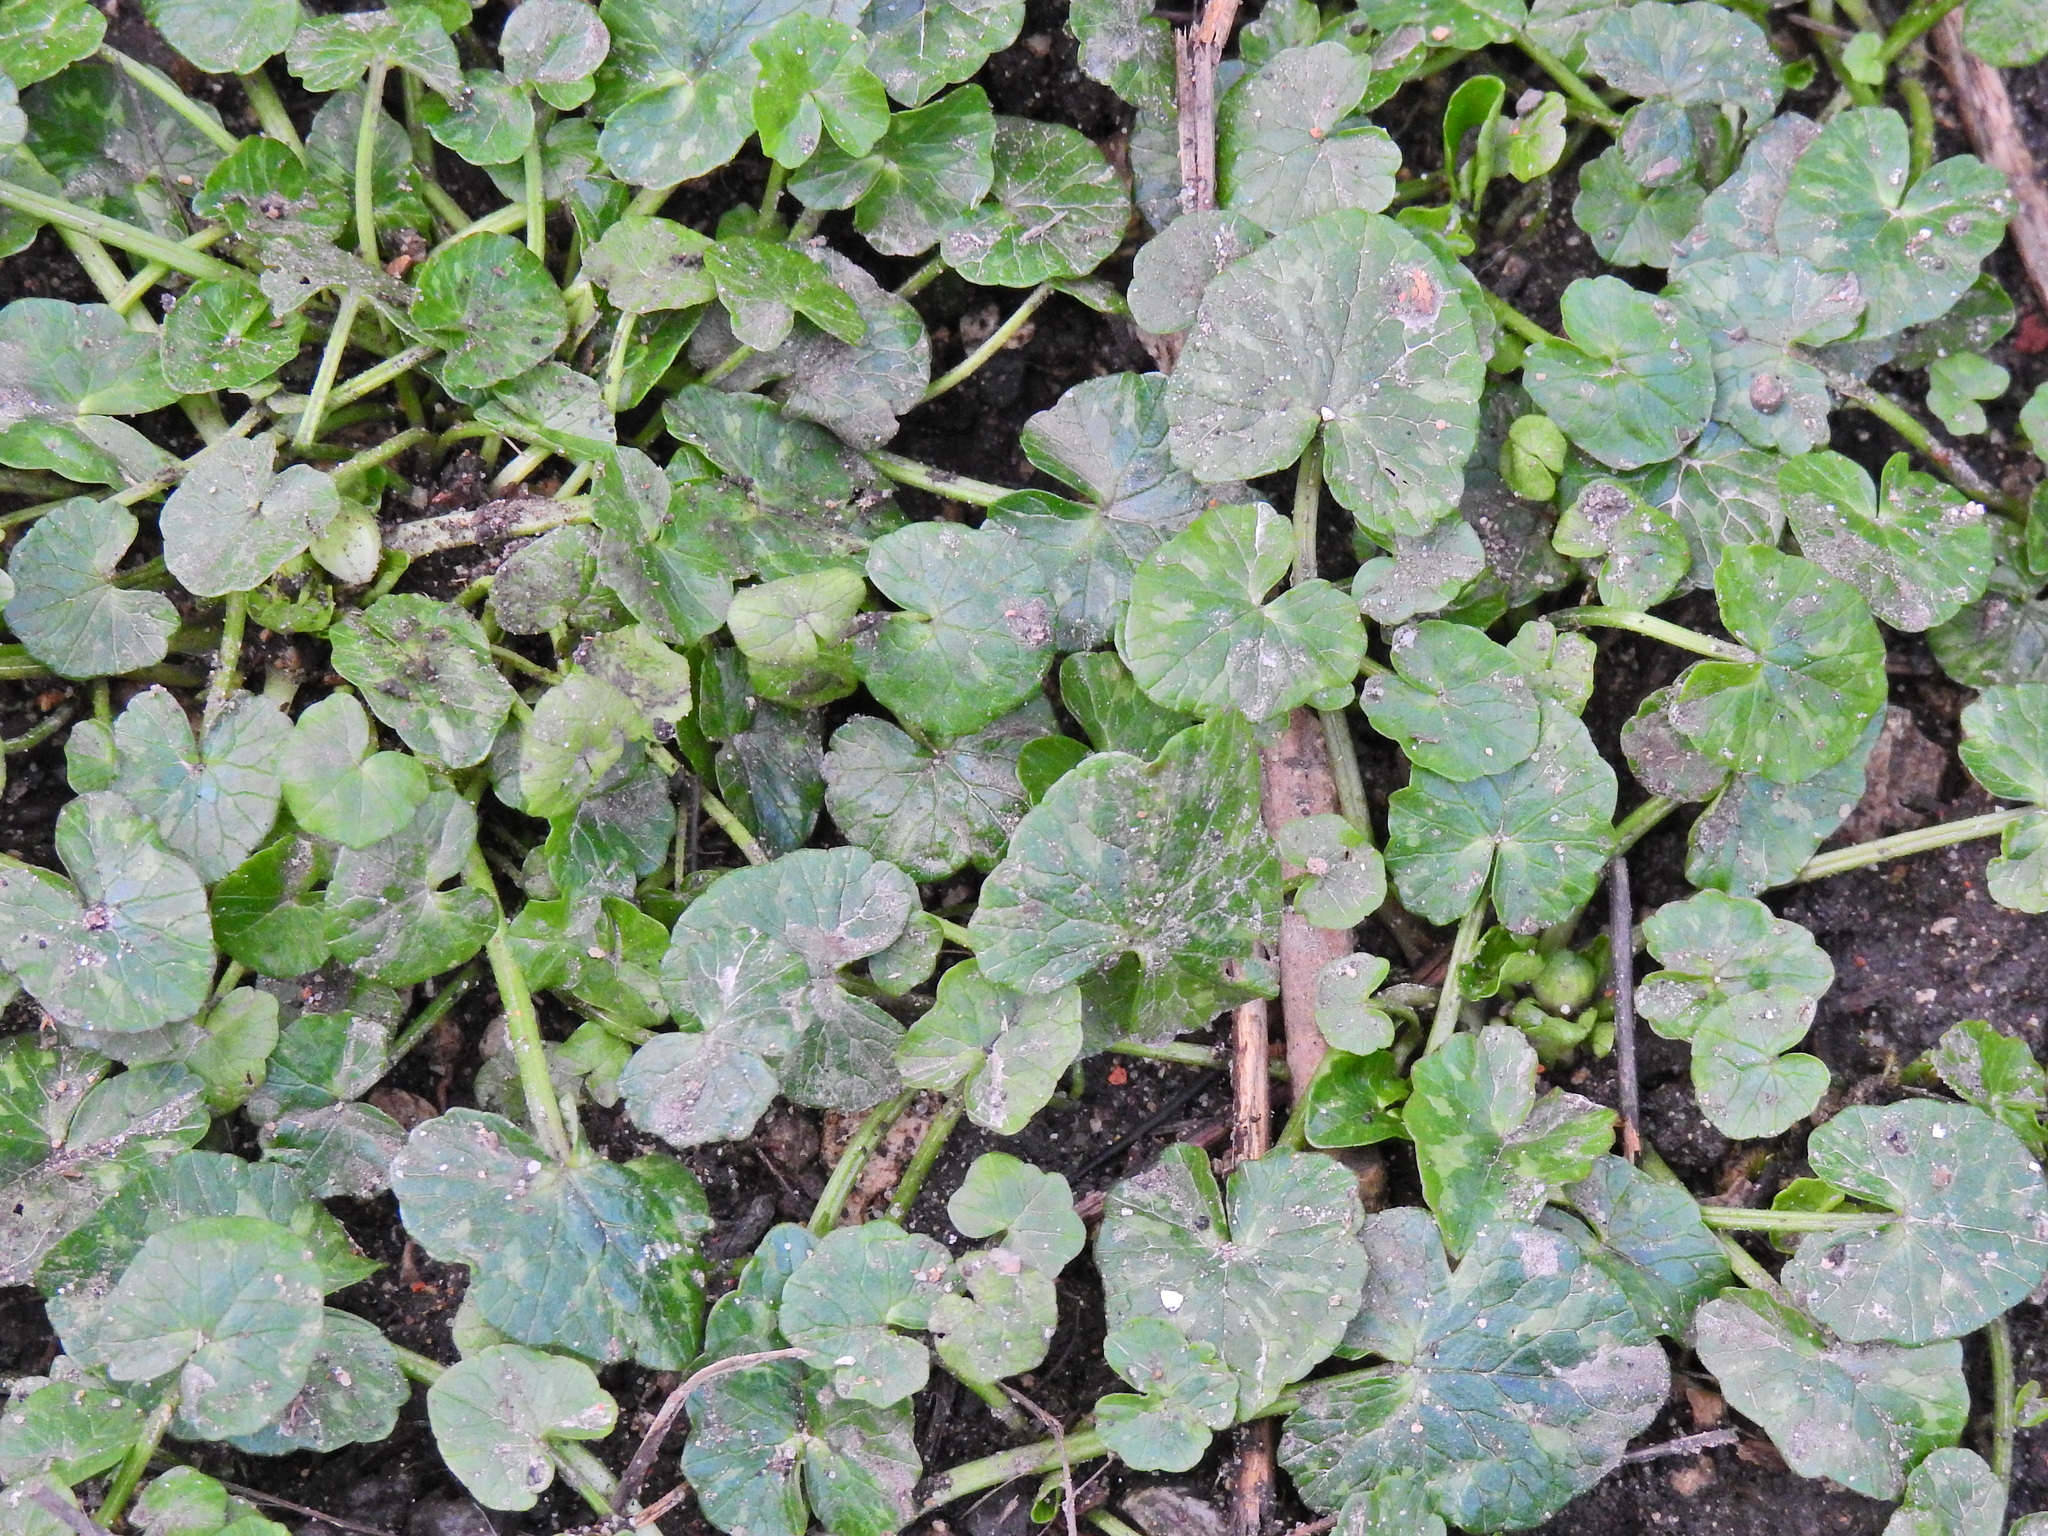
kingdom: Plantae
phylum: Tracheophyta
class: Magnoliopsida
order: Ranunculales
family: Ranunculaceae
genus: Ficaria
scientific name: Ficaria verna
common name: Lesser celandine
